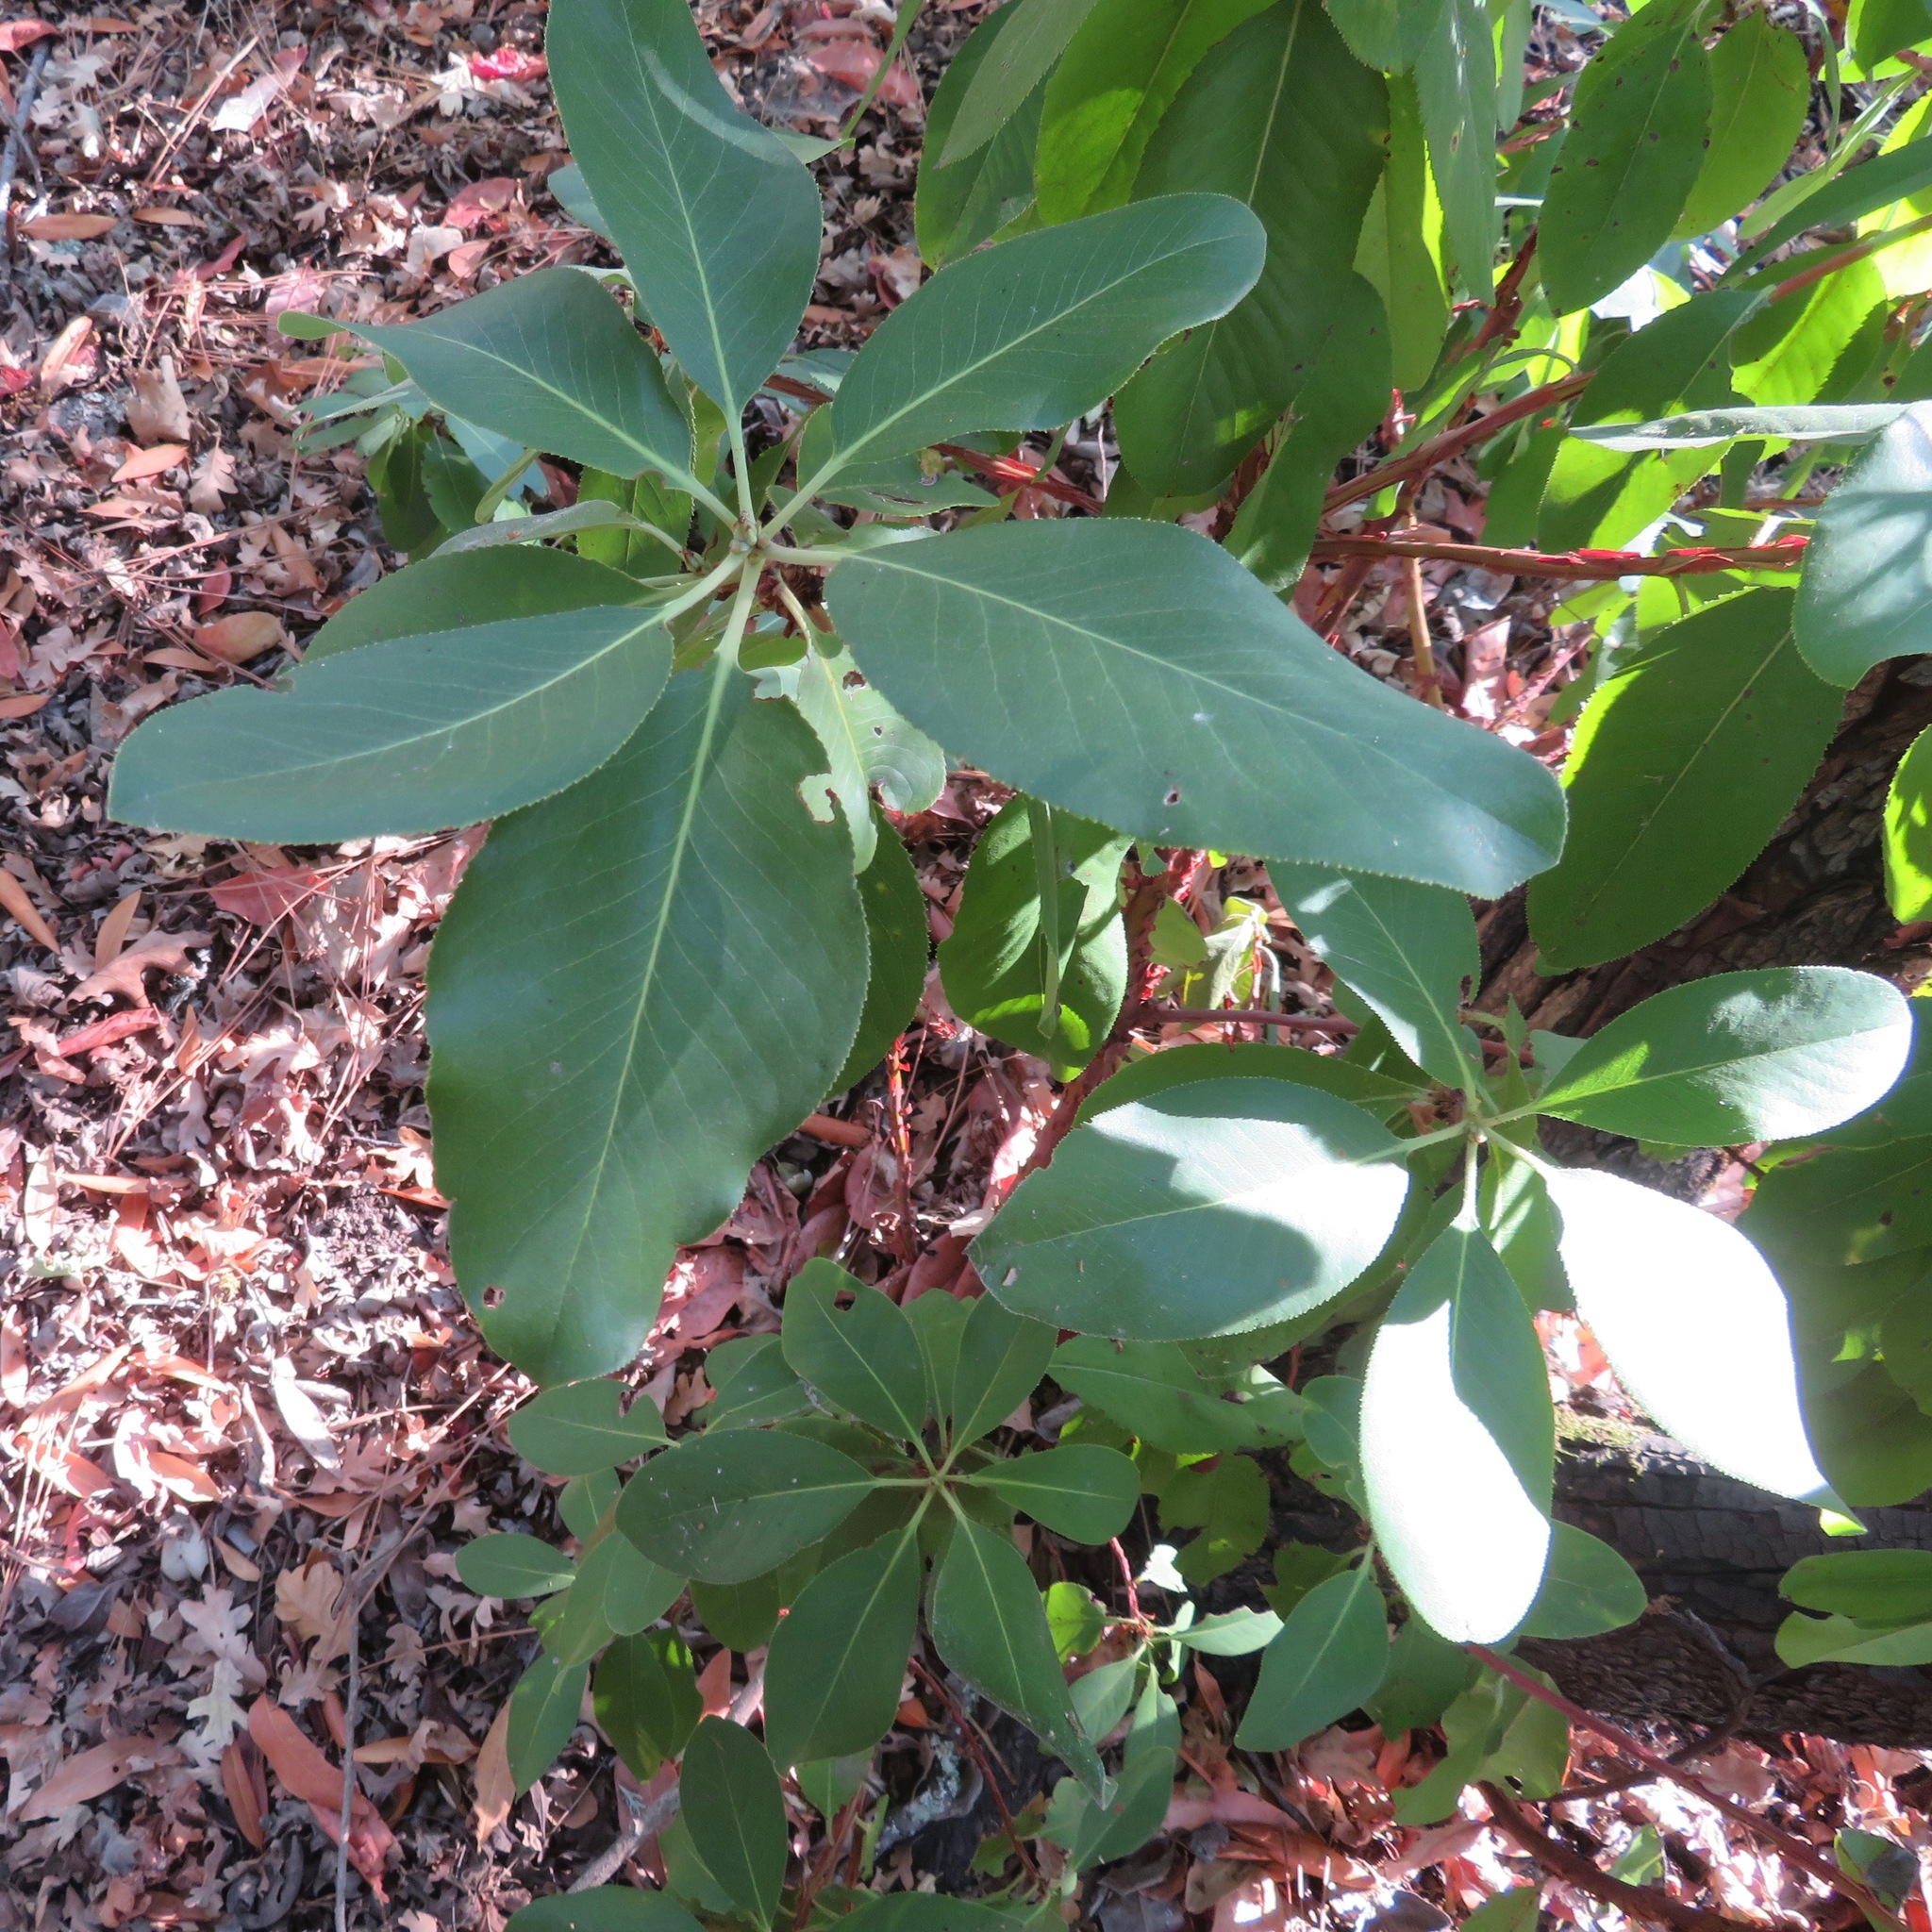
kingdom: Plantae
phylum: Tracheophyta
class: Magnoliopsida
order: Ericales
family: Ericaceae
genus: Arbutus
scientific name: Arbutus menziesii
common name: Pacific madrone
